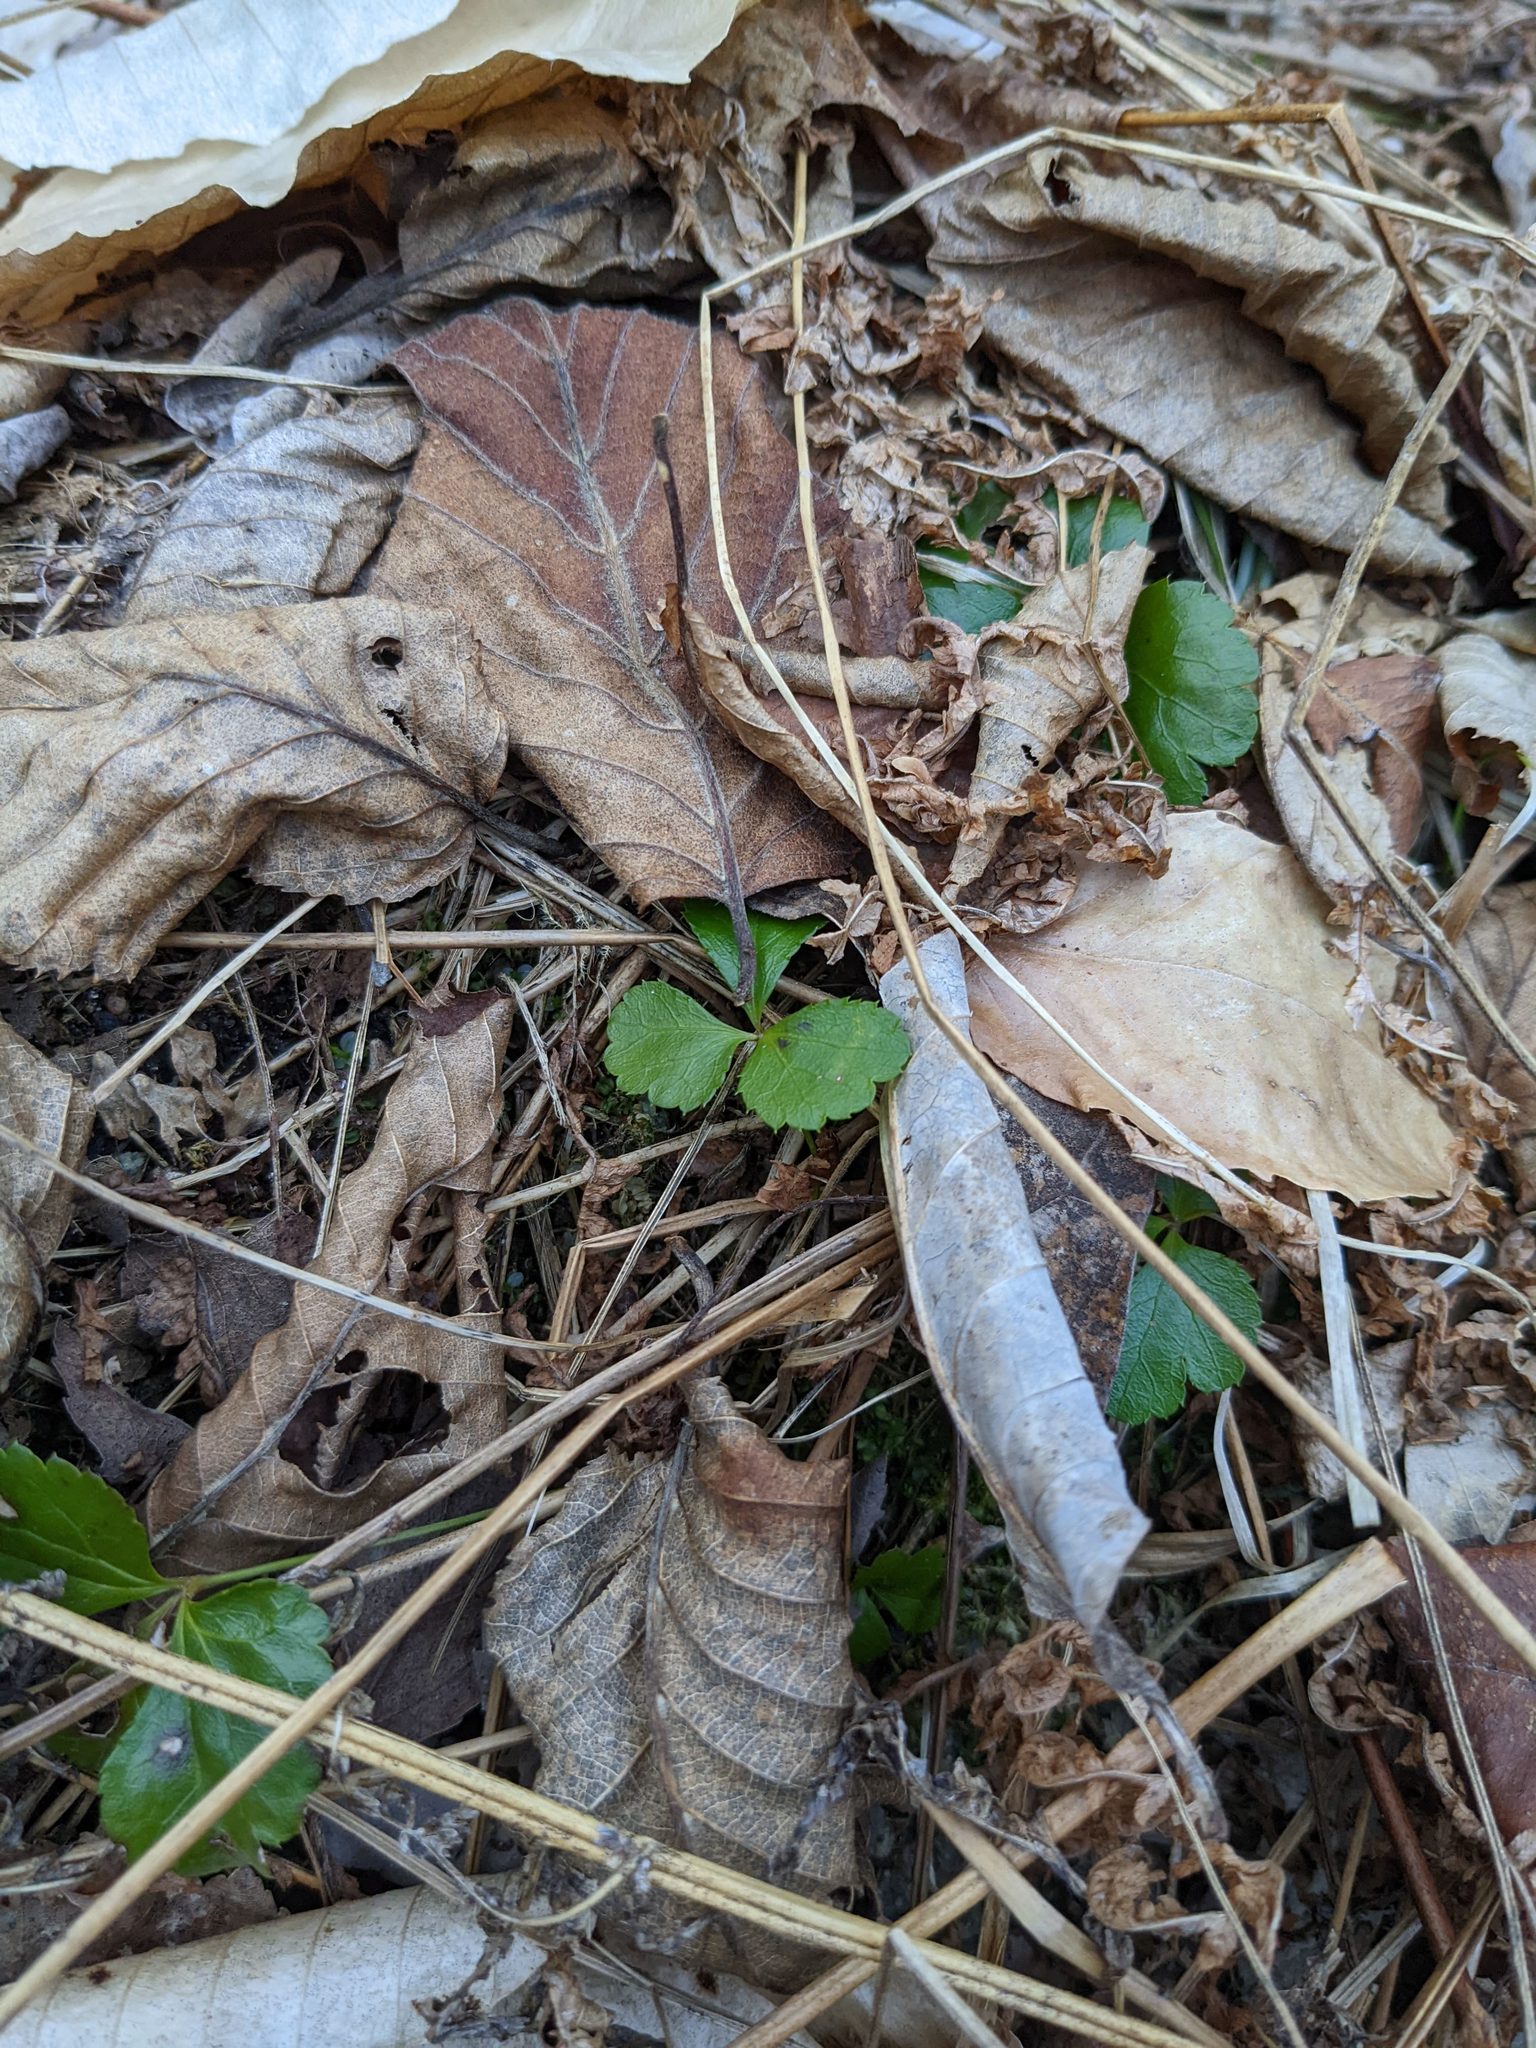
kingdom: Plantae
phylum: Tracheophyta
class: Magnoliopsida
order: Ranunculales
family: Ranunculaceae
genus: Coptis
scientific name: Coptis trifolia
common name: Canker-root
